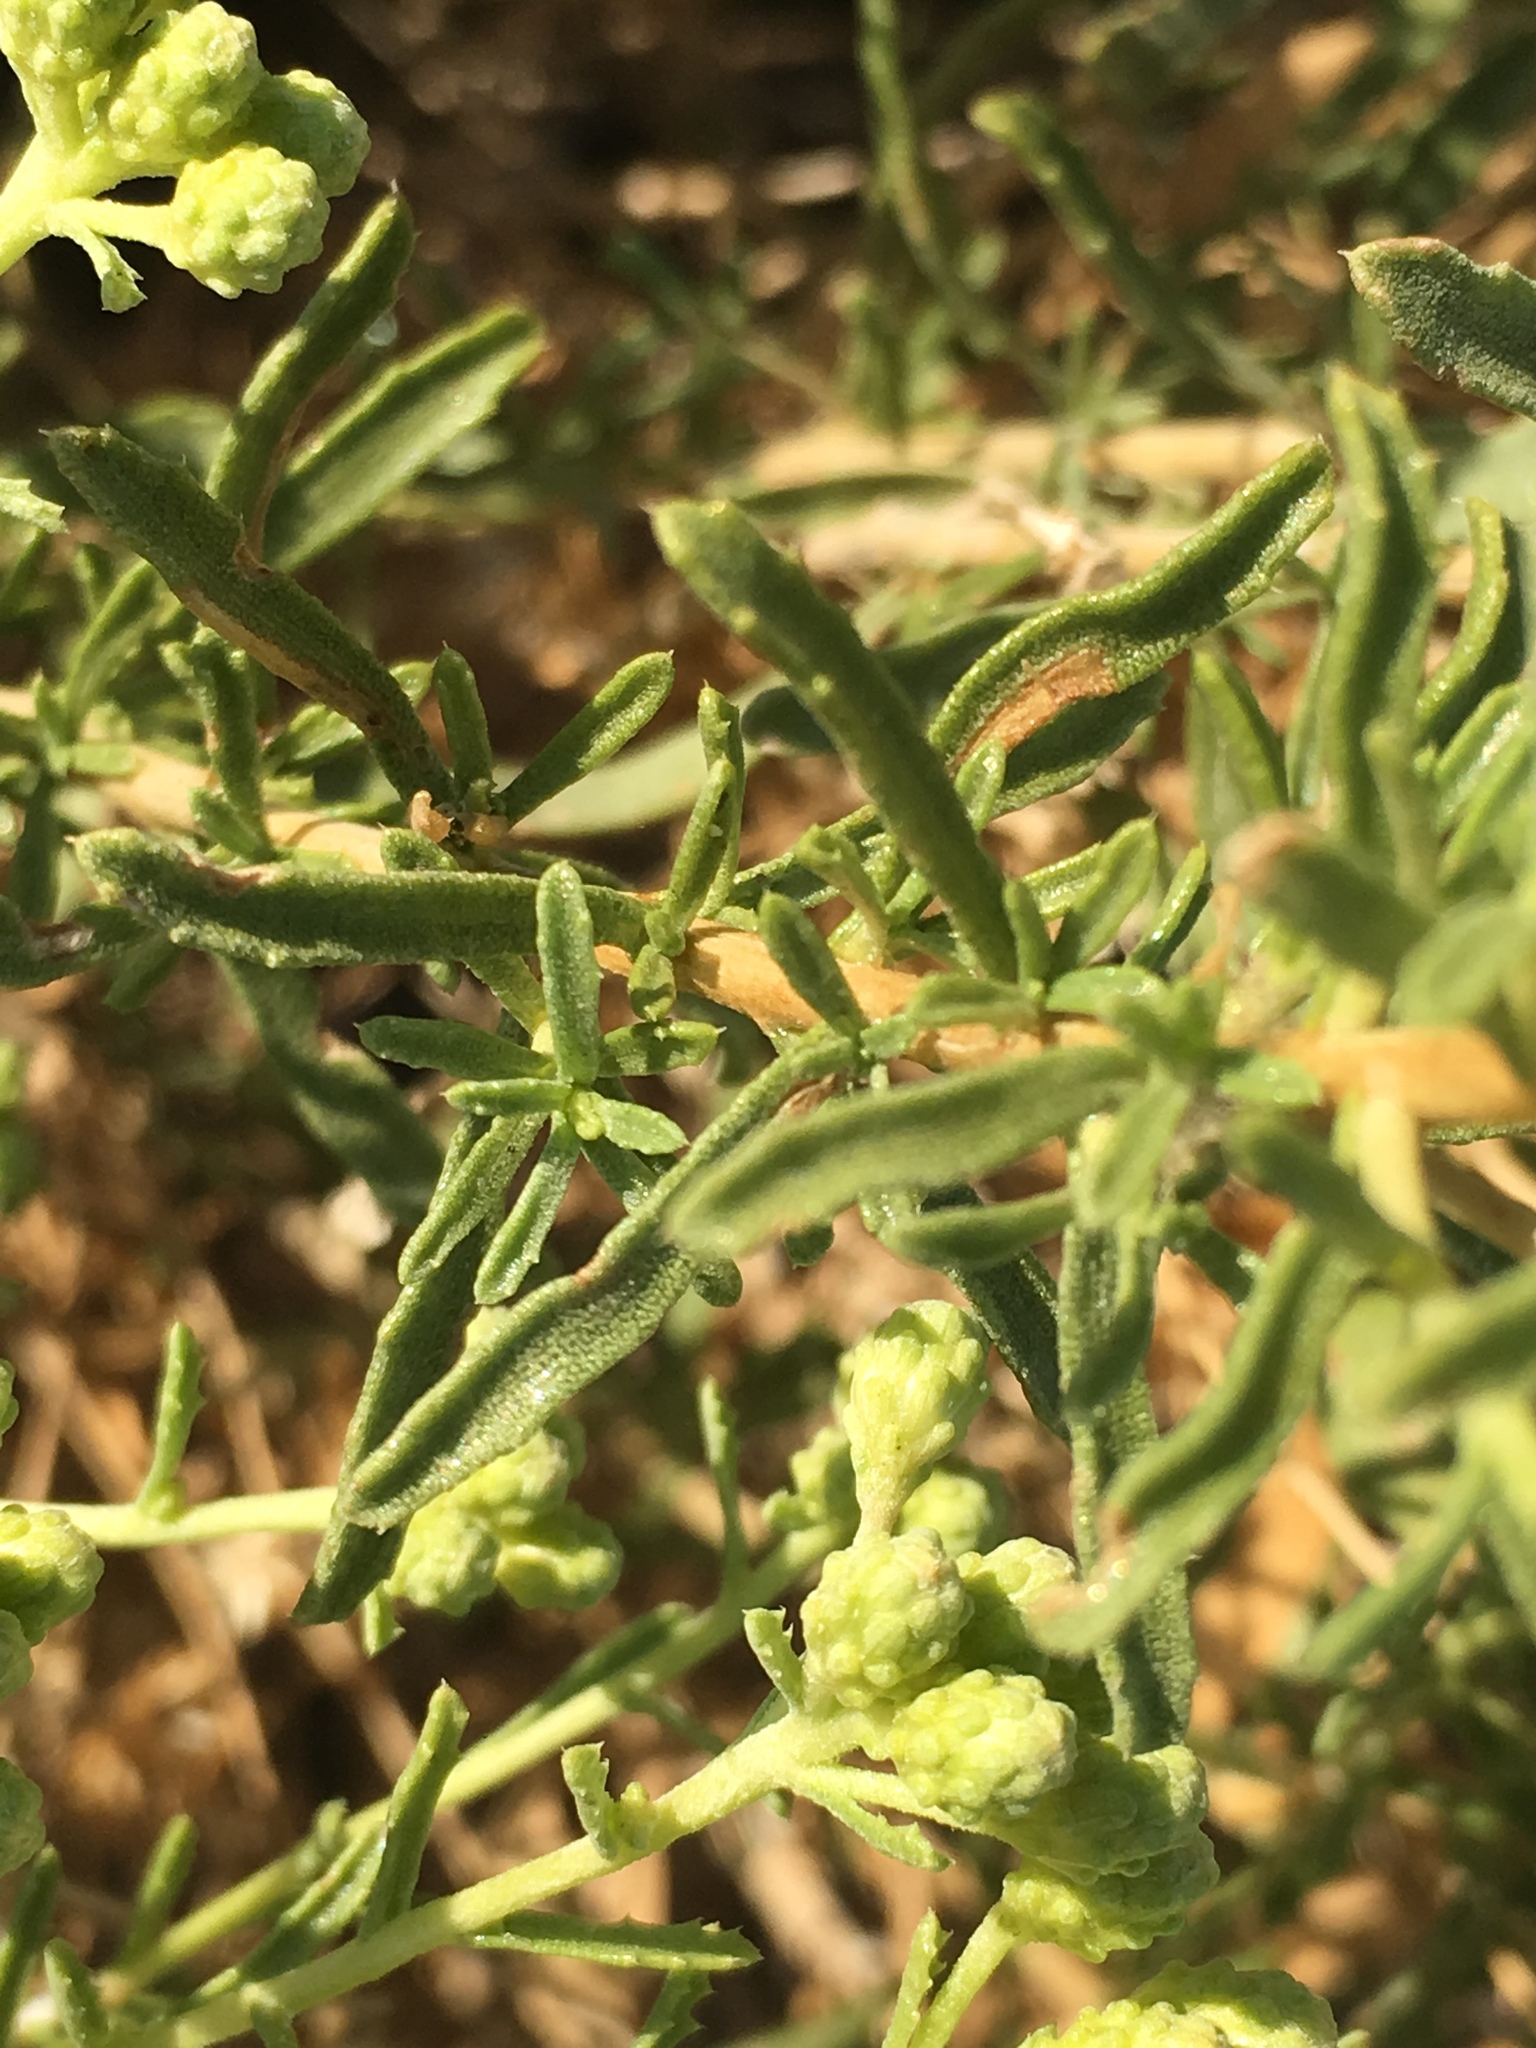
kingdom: Plantae
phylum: Tracheophyta
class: Magnoliopsida
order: Asterales
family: Asteraceae
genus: Isocoma
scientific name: Isocoma acradenia
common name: Alkali jimmyweed
